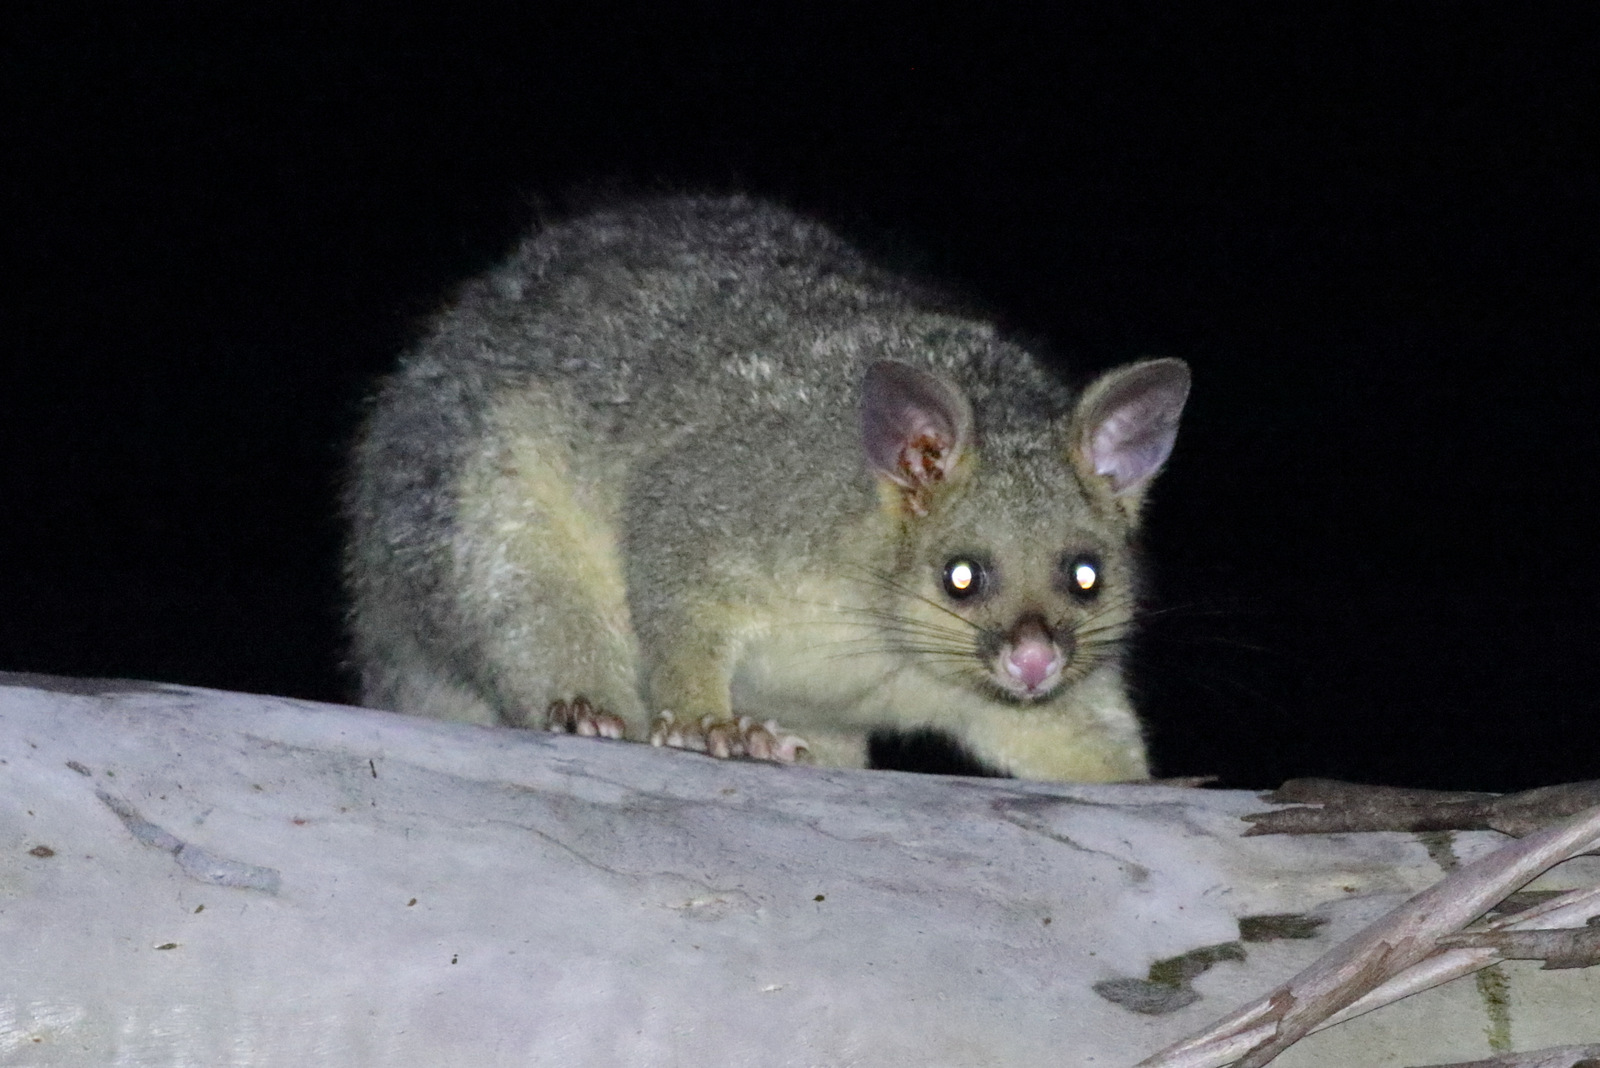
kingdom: Animalia
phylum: Chordata
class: Mammalia
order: Diprotodontia
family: Phalangeridae
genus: Trichosurus
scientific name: Trichosurus vulpecula
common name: Common brushtail
